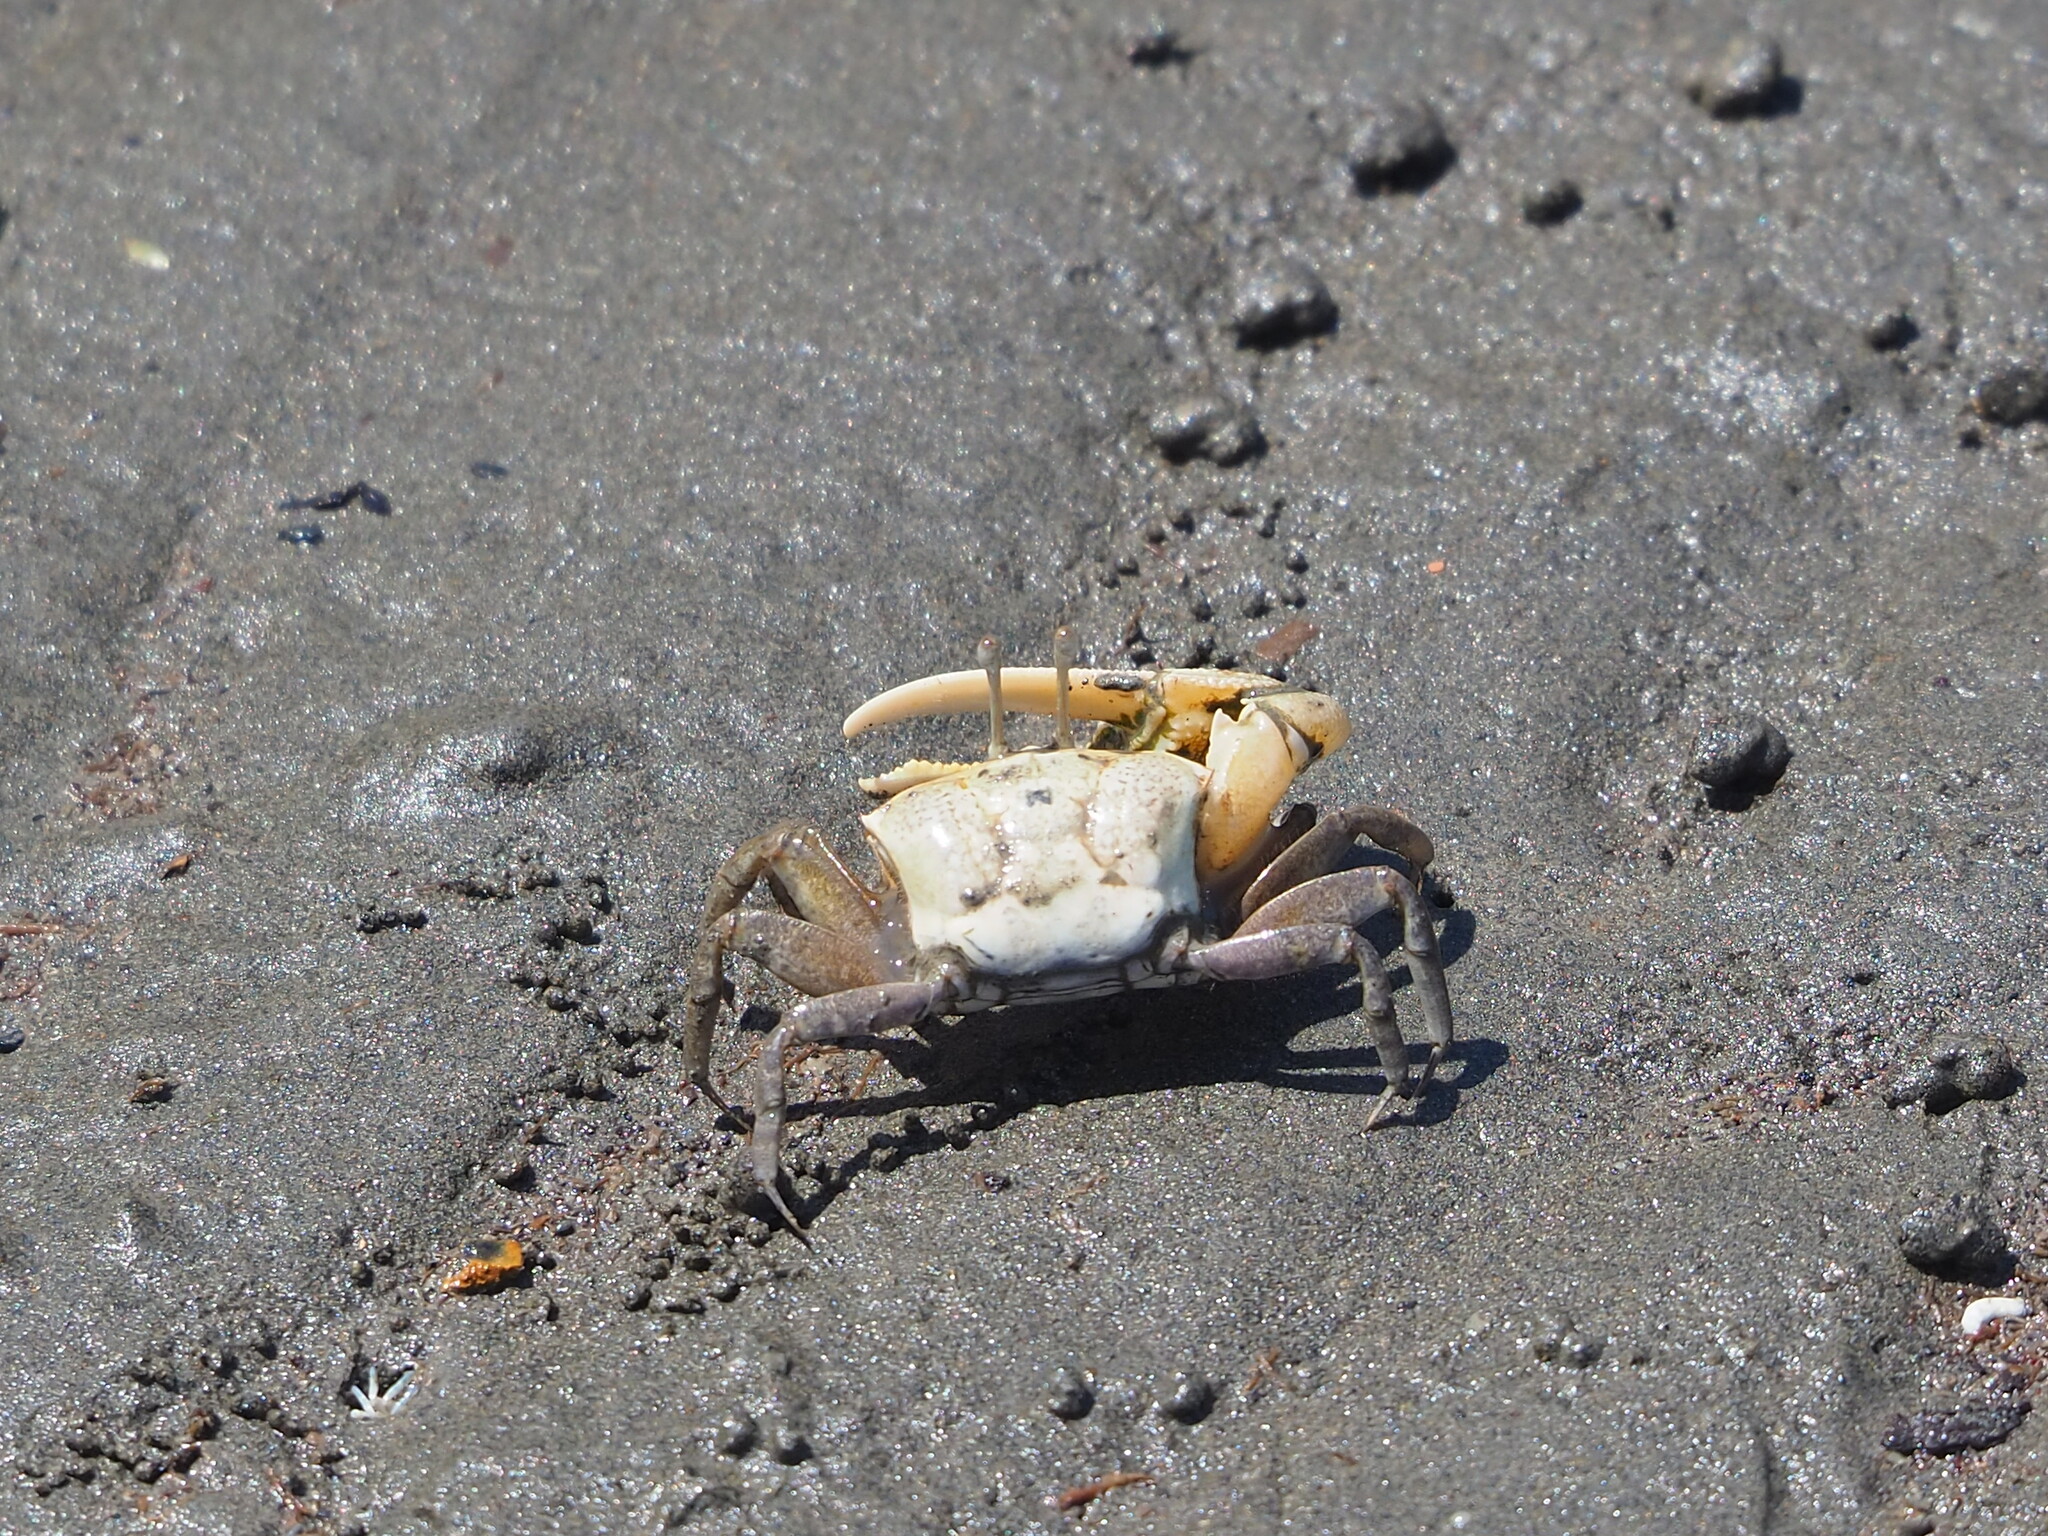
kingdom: Animalia
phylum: Arthropoda
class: Malacostraca
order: Decapoda
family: Ocypodidae
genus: Gelasimus
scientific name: Gelasimus borealis
